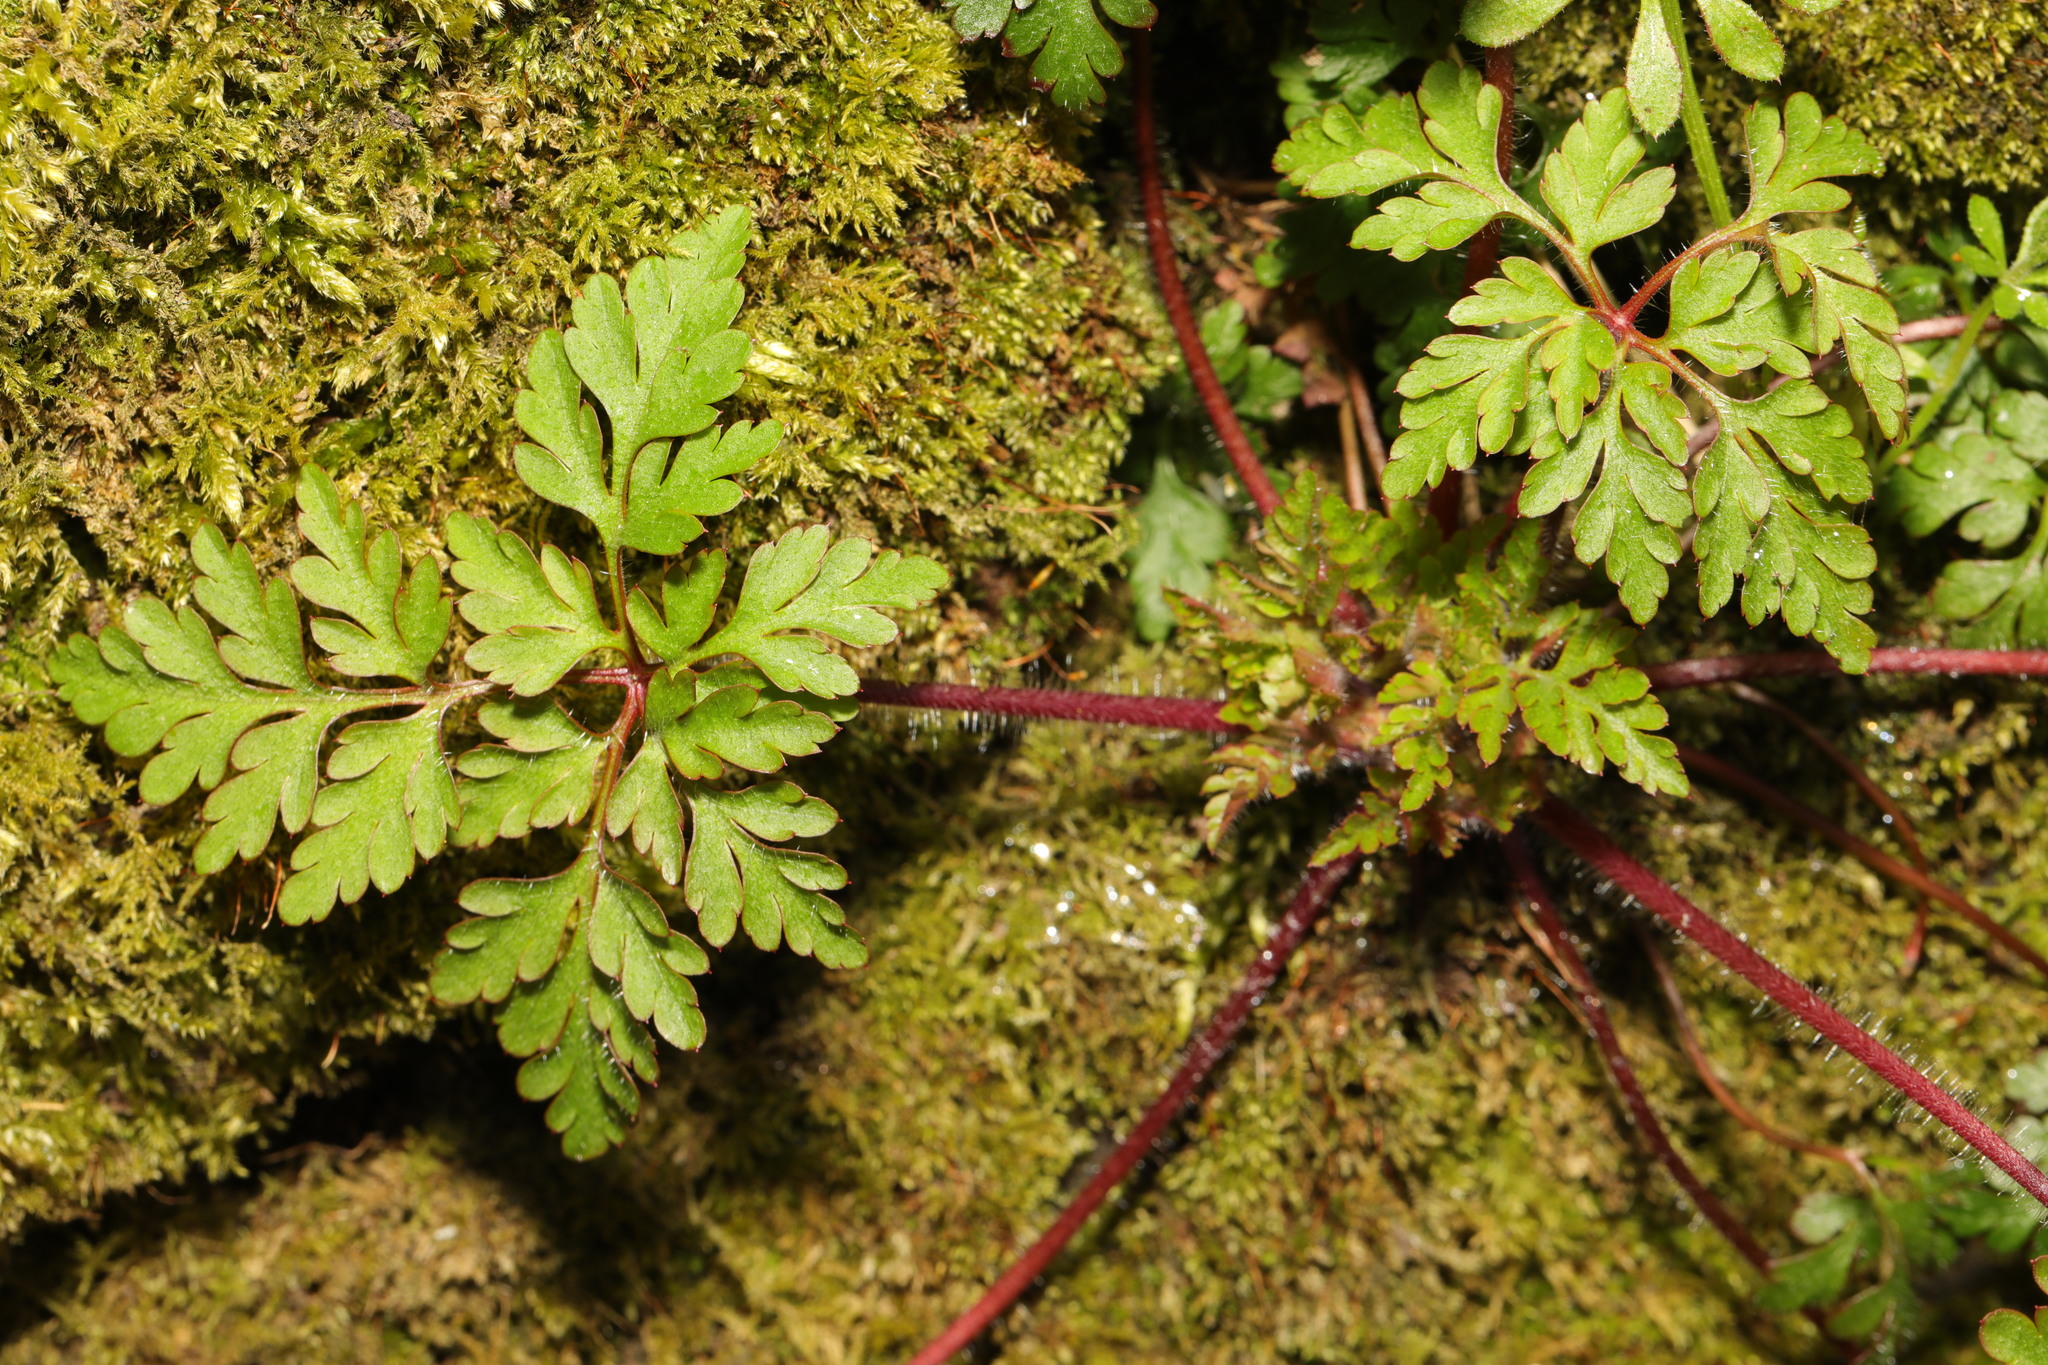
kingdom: Plantae
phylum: Tracheophyta
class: Magnoliopsida
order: Geraniales
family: Geraniaceae
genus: Geranium
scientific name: Geranium robertianum
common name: Herb-robert
